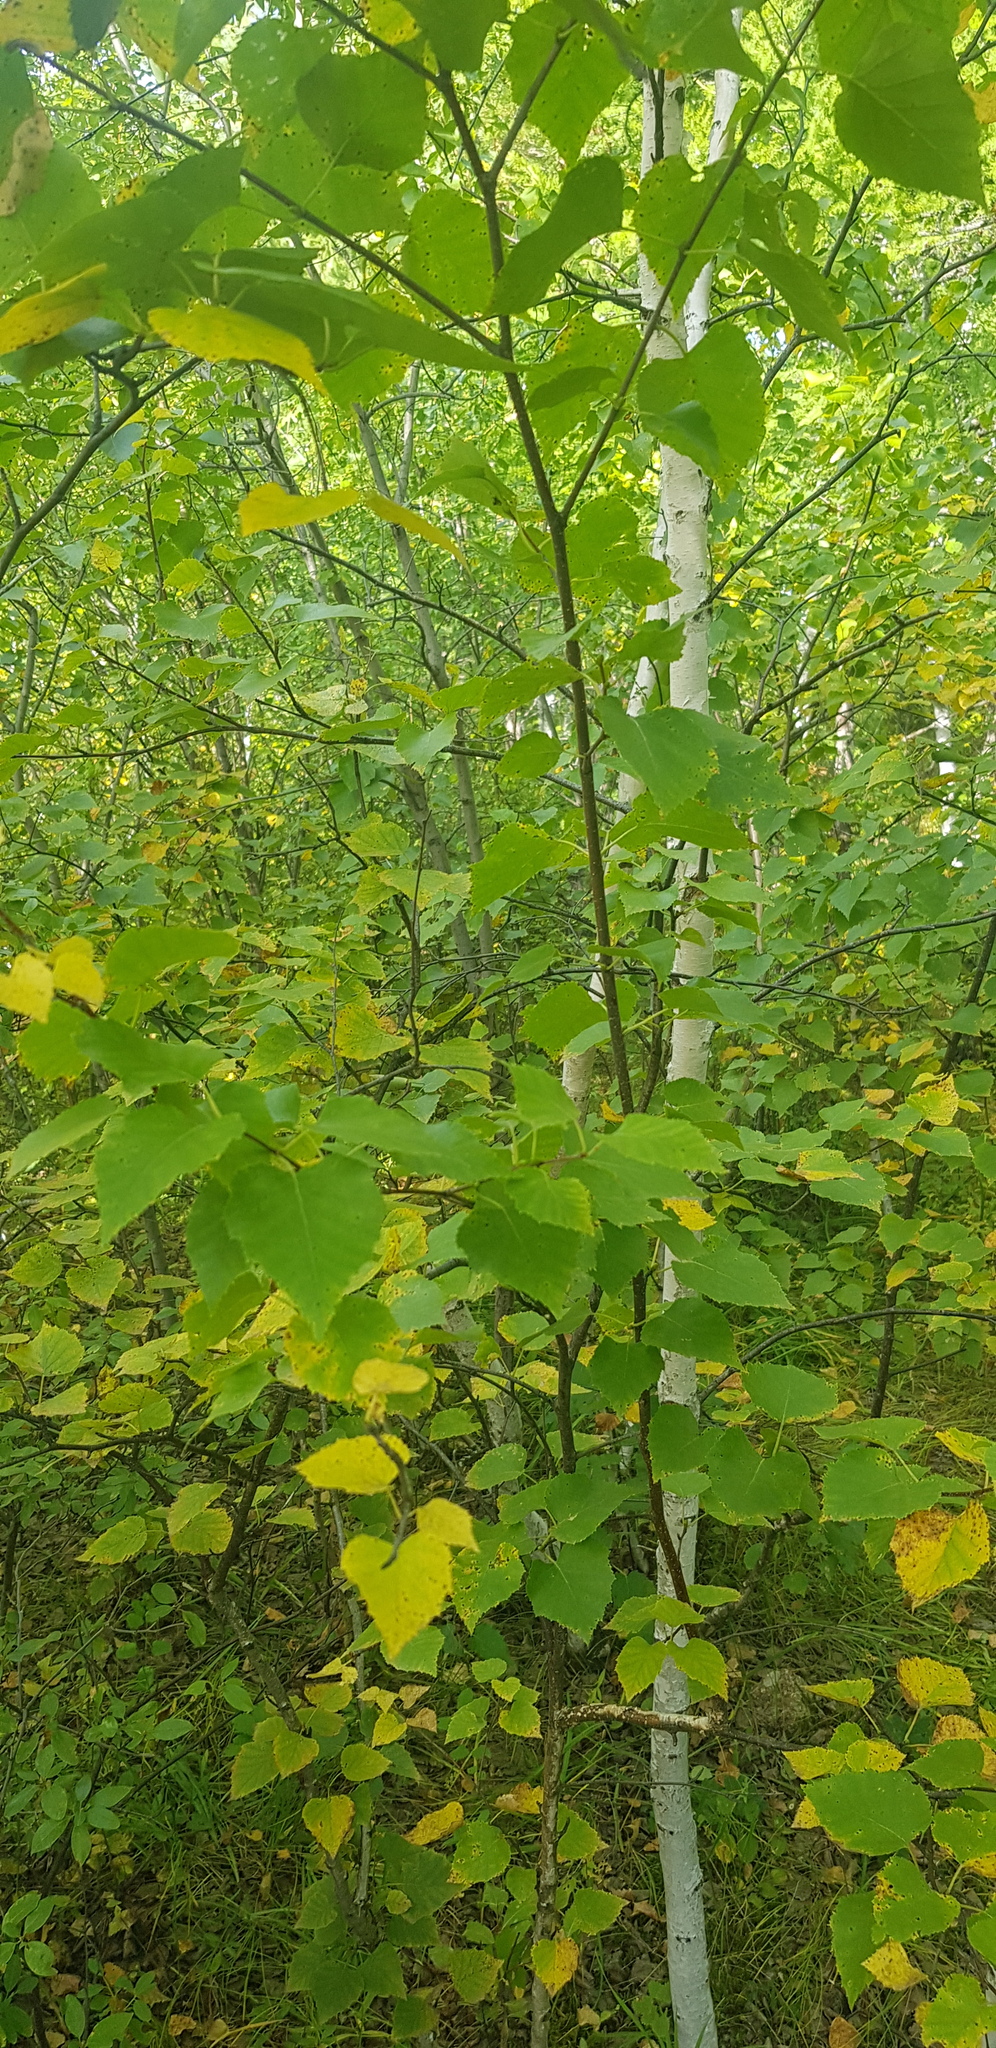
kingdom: Plantae
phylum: Tracheophyta
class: Magnoliopsida
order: Fagales
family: Betulaceae
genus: Betula
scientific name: Betula pendula
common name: Silver birch
